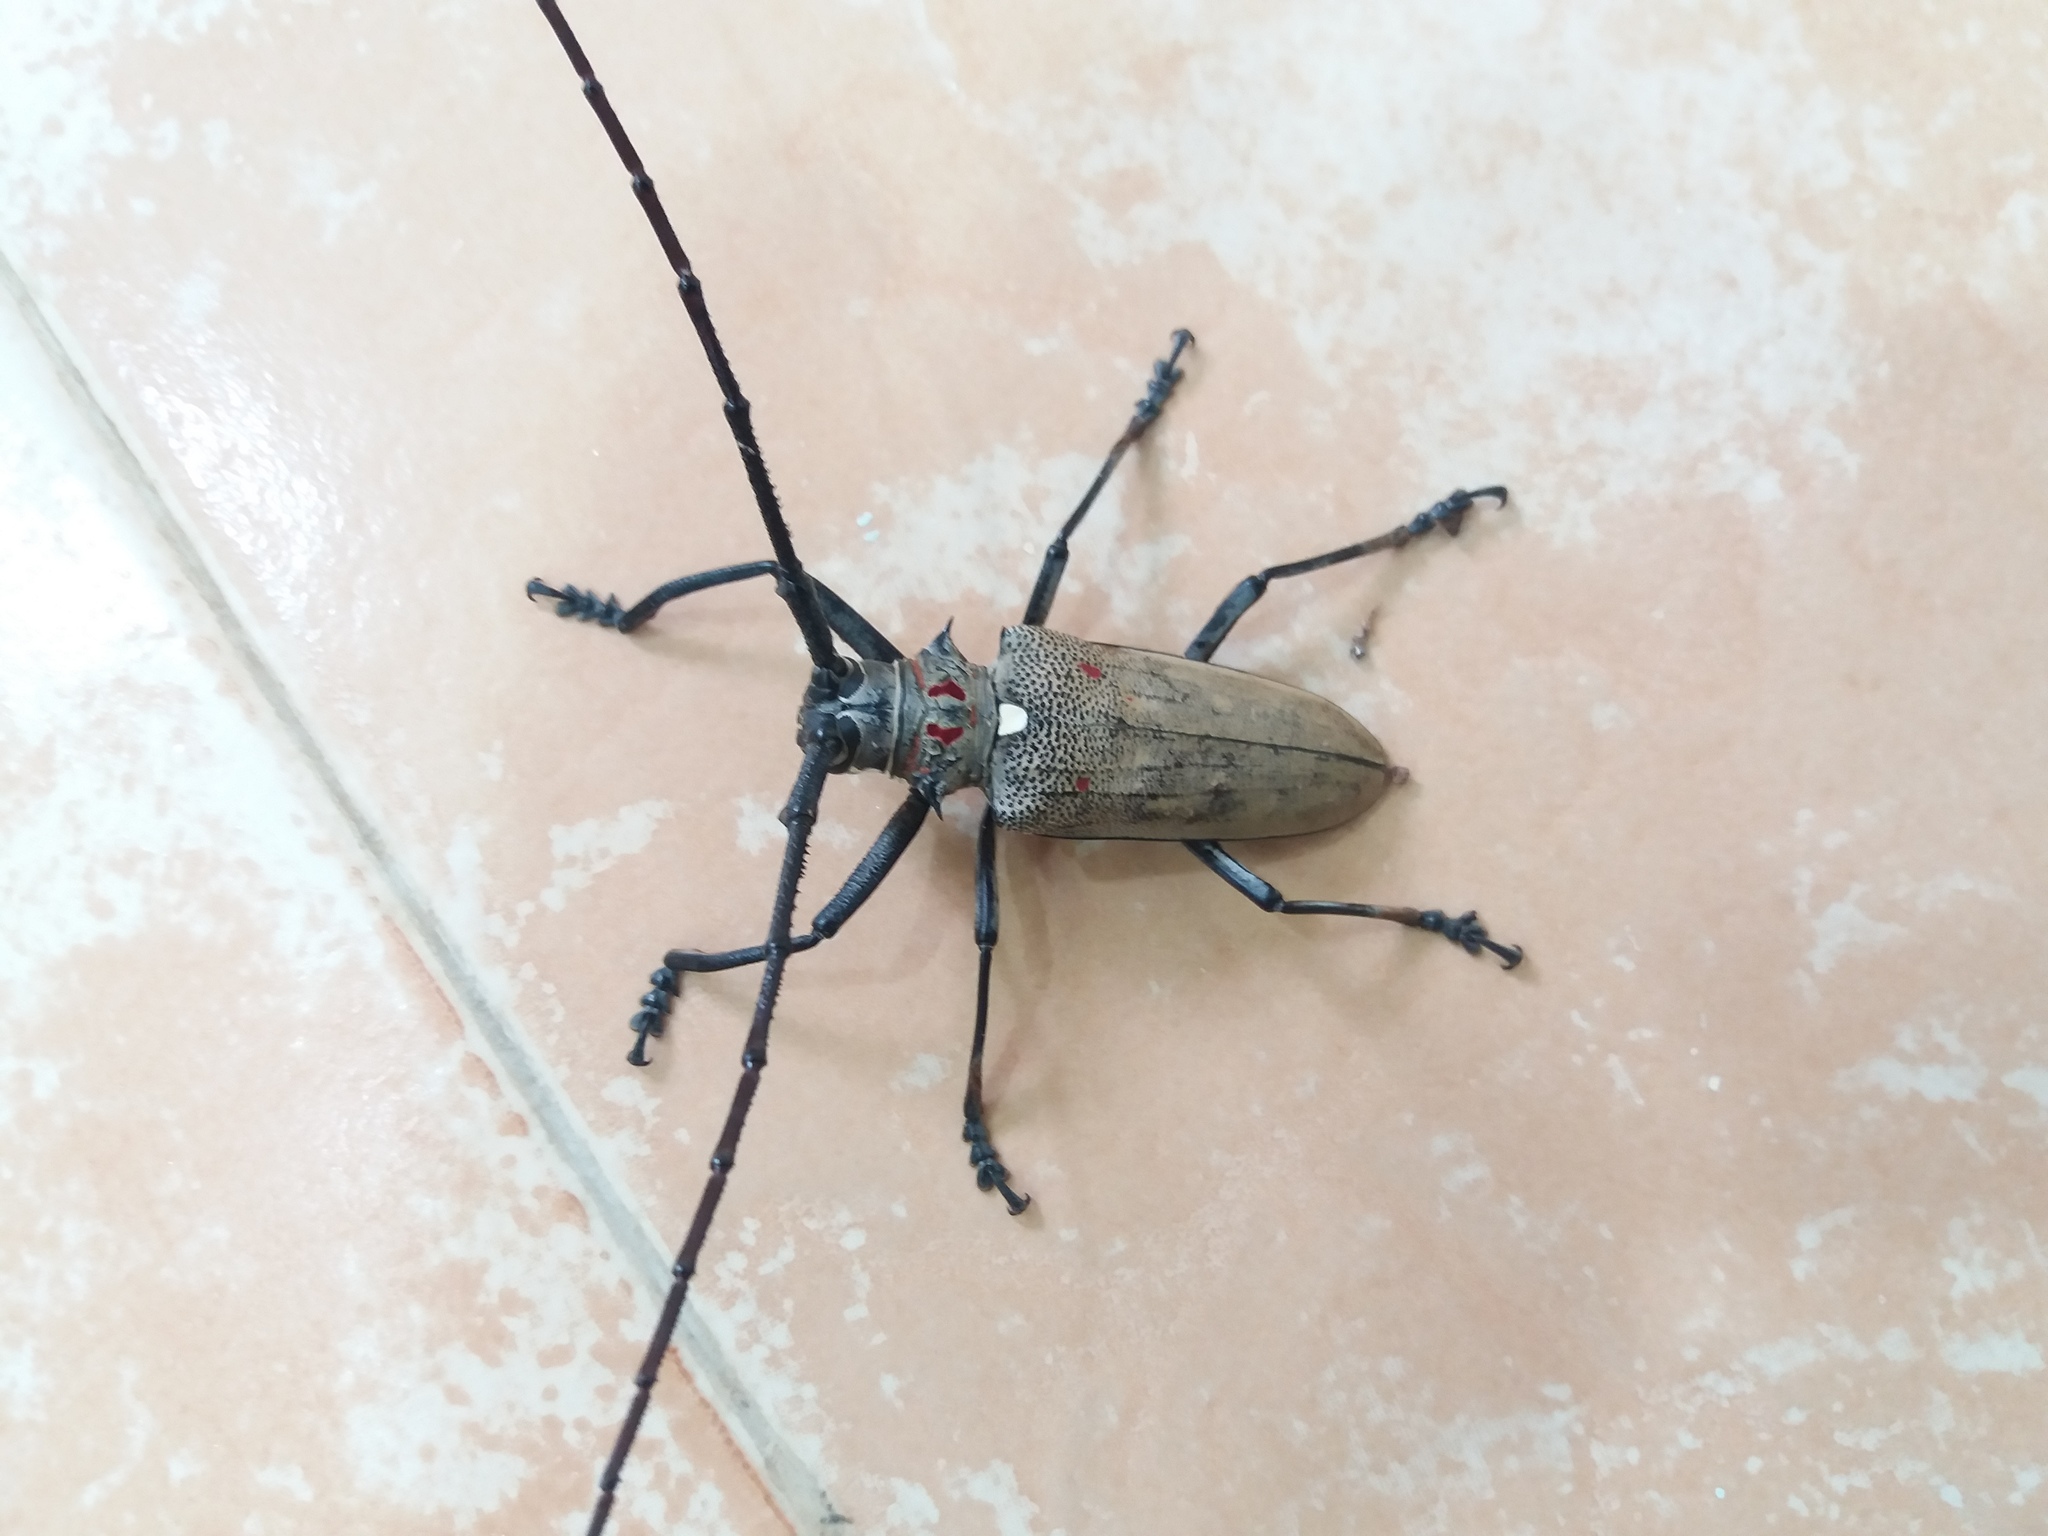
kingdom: Animalia
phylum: Arthropoda
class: Insecta
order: Coleoptera
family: Cerambycidae
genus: Batocera
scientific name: Batocera rufomaculata
